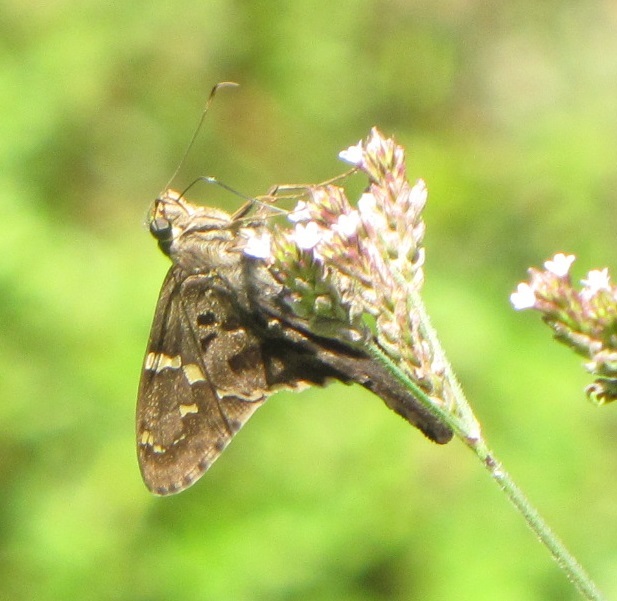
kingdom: Animalia
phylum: Arthropoda
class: Insecta
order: Lepidoptera
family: Hesperiidae
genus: Urbanus
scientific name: Urbanus proteus
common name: Long-tailed skipper
